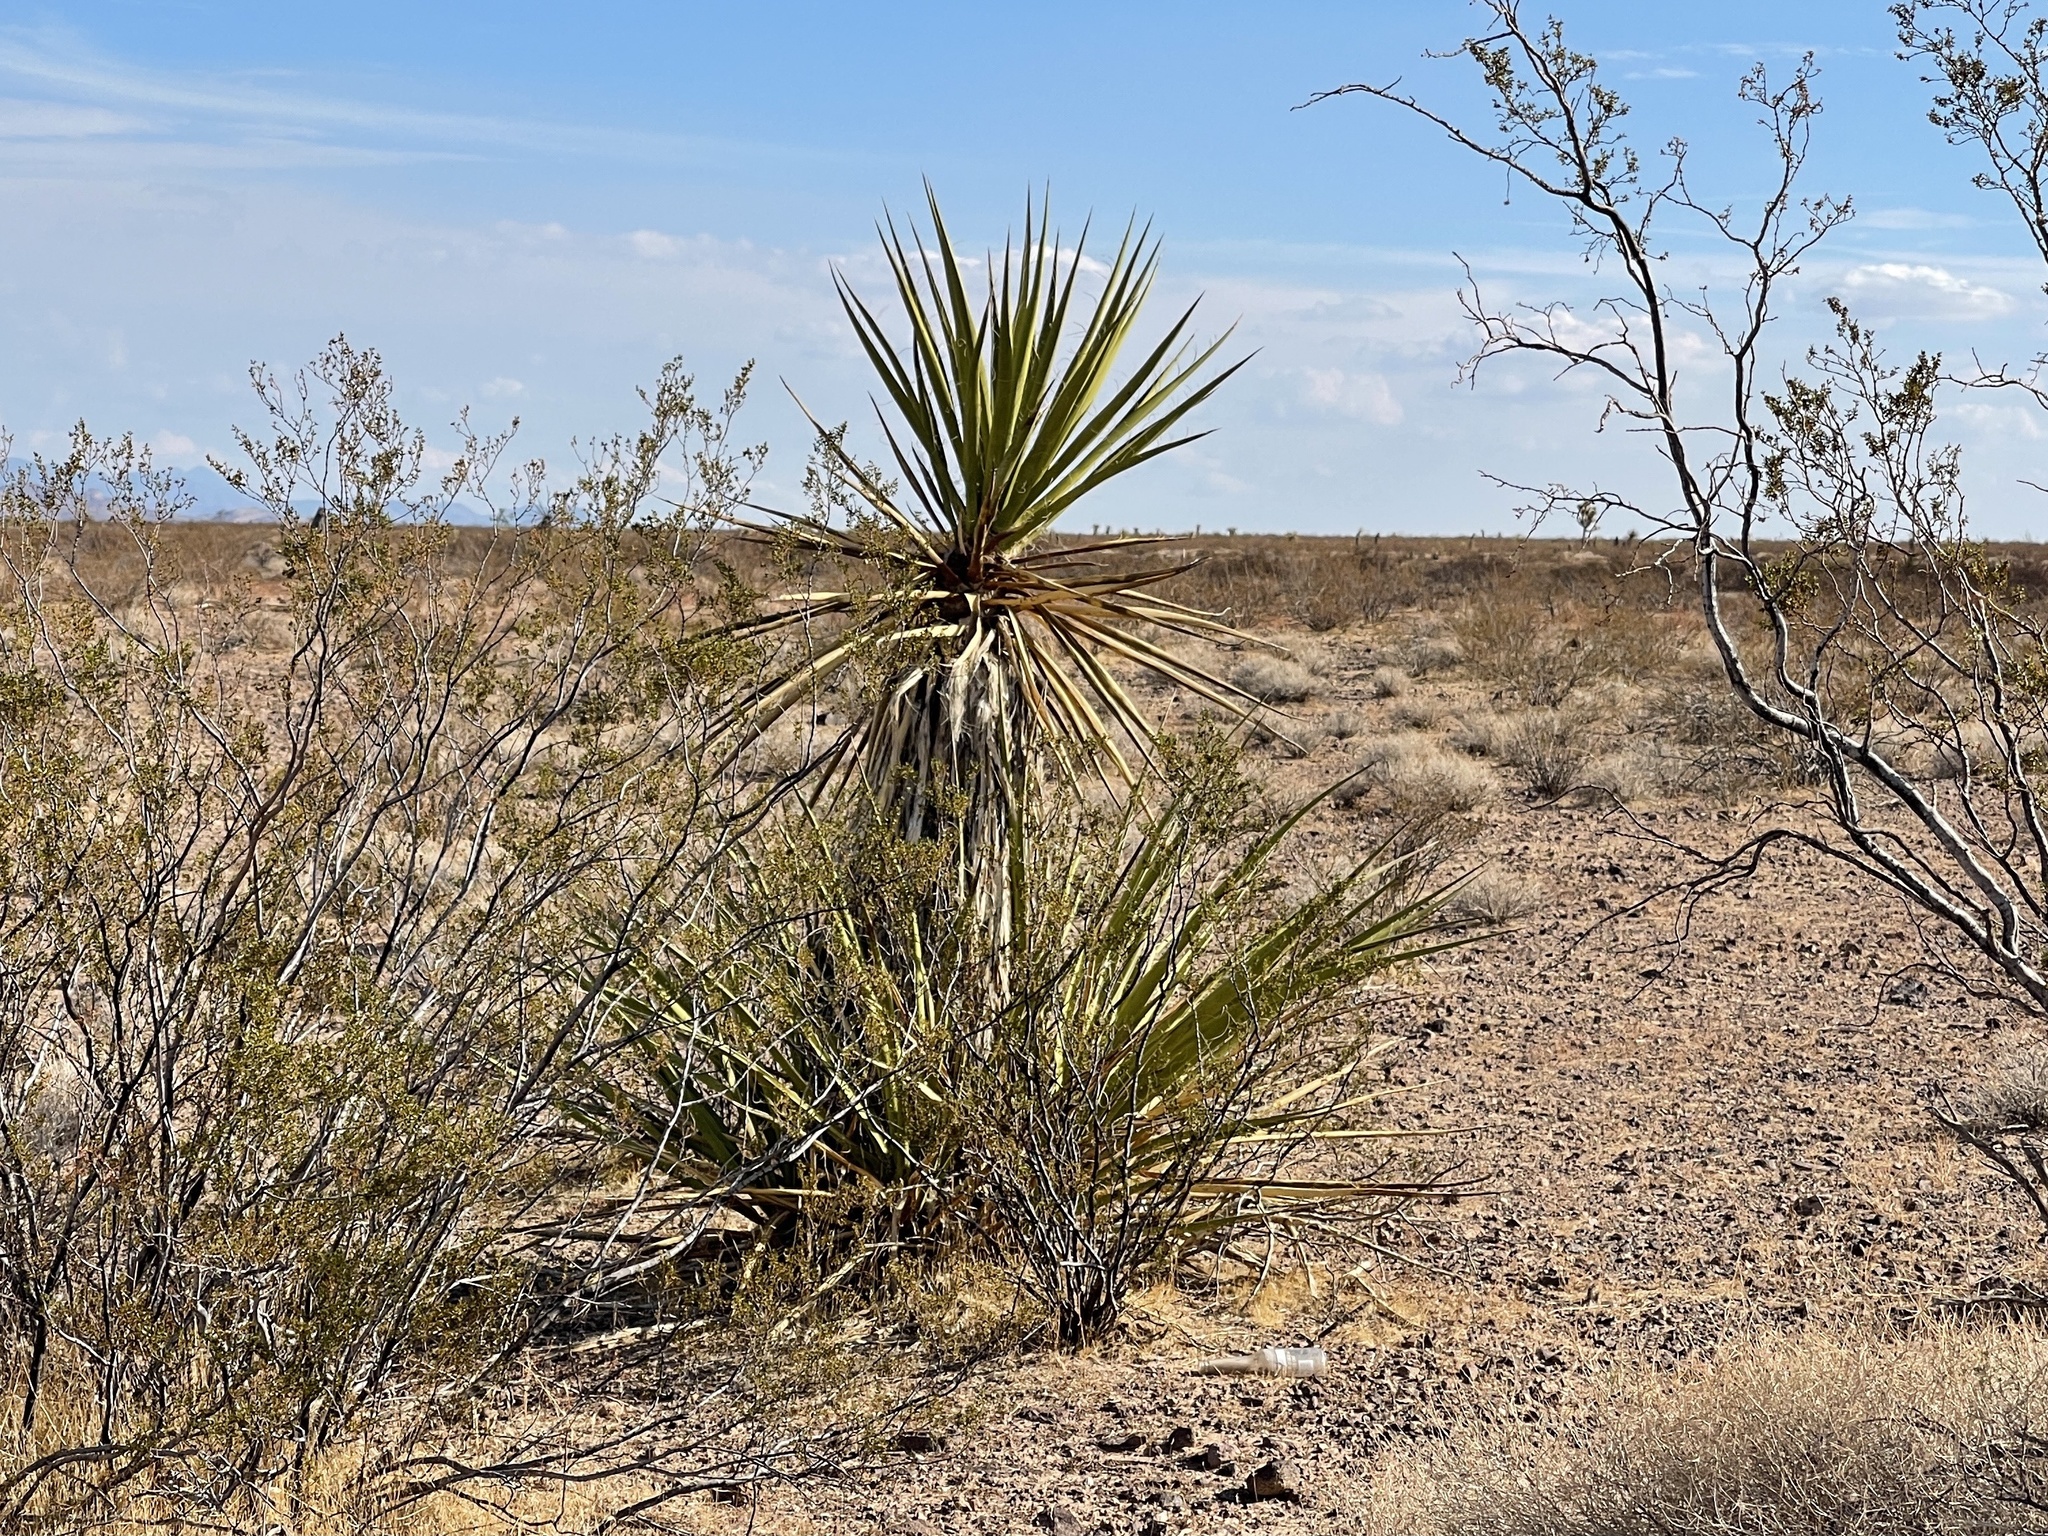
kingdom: Plantae
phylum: Tracheophyta
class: Liliopsida
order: Asparagales
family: Asparagaceae
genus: Yucca
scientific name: Yucca schidigera
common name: Mojave yucca
